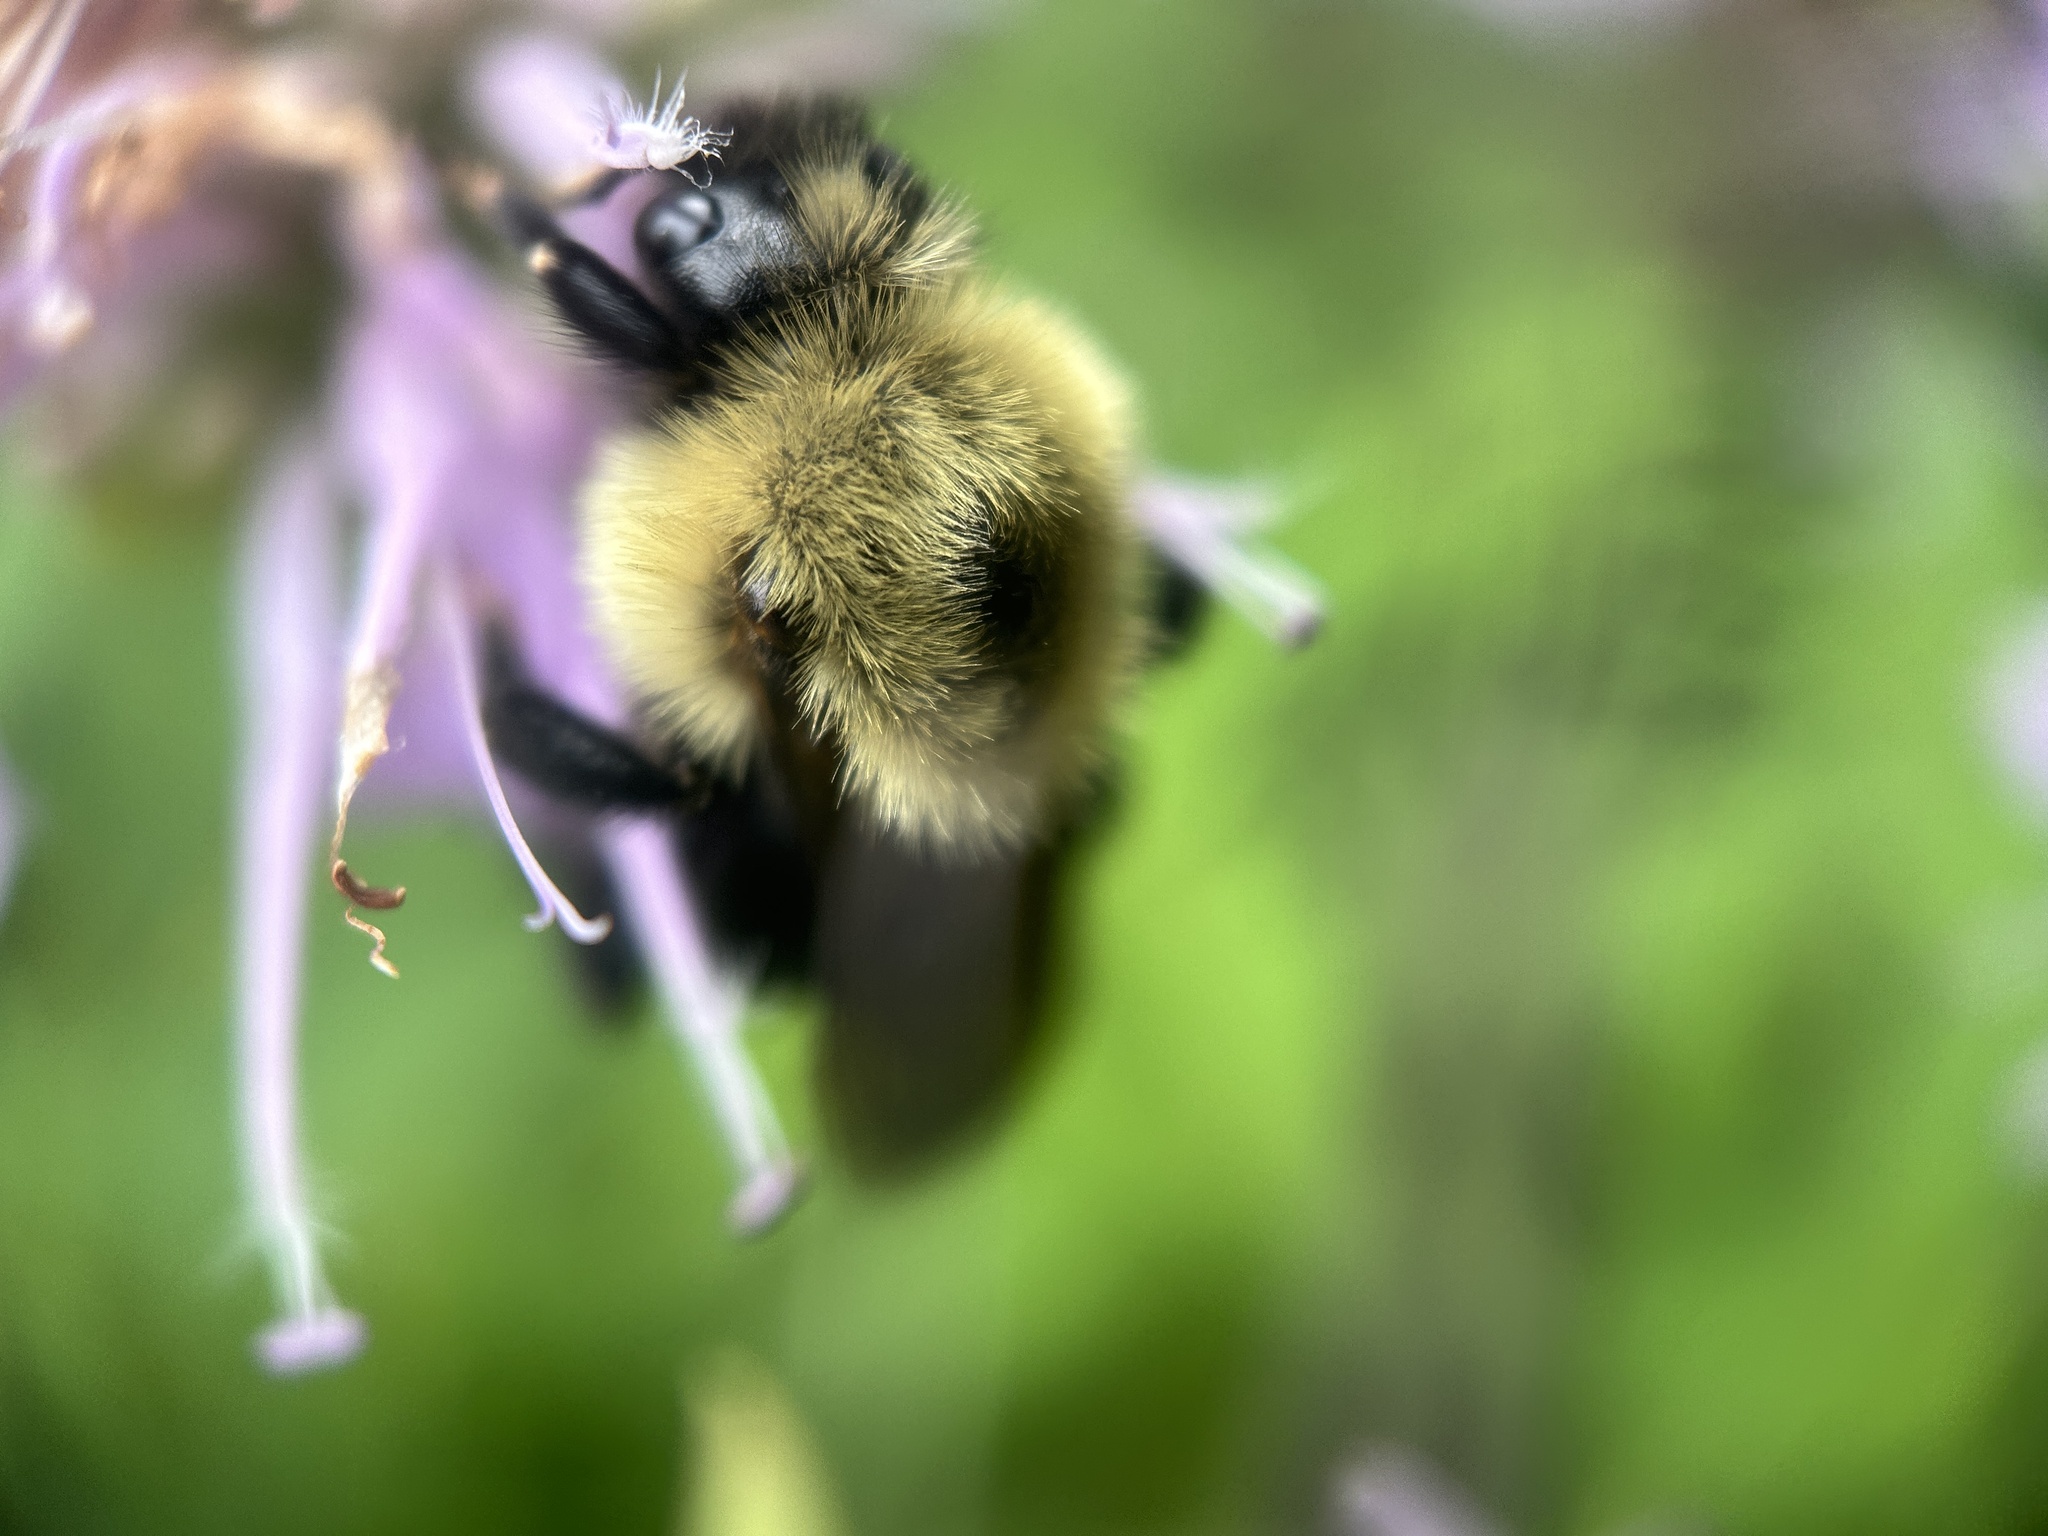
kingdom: Animalia
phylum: Arthropoda
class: Insecta
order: Hymenoptera
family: Apidae
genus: Bombus
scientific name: Bombus citrinus
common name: Lemon cuckoo bumble bee
